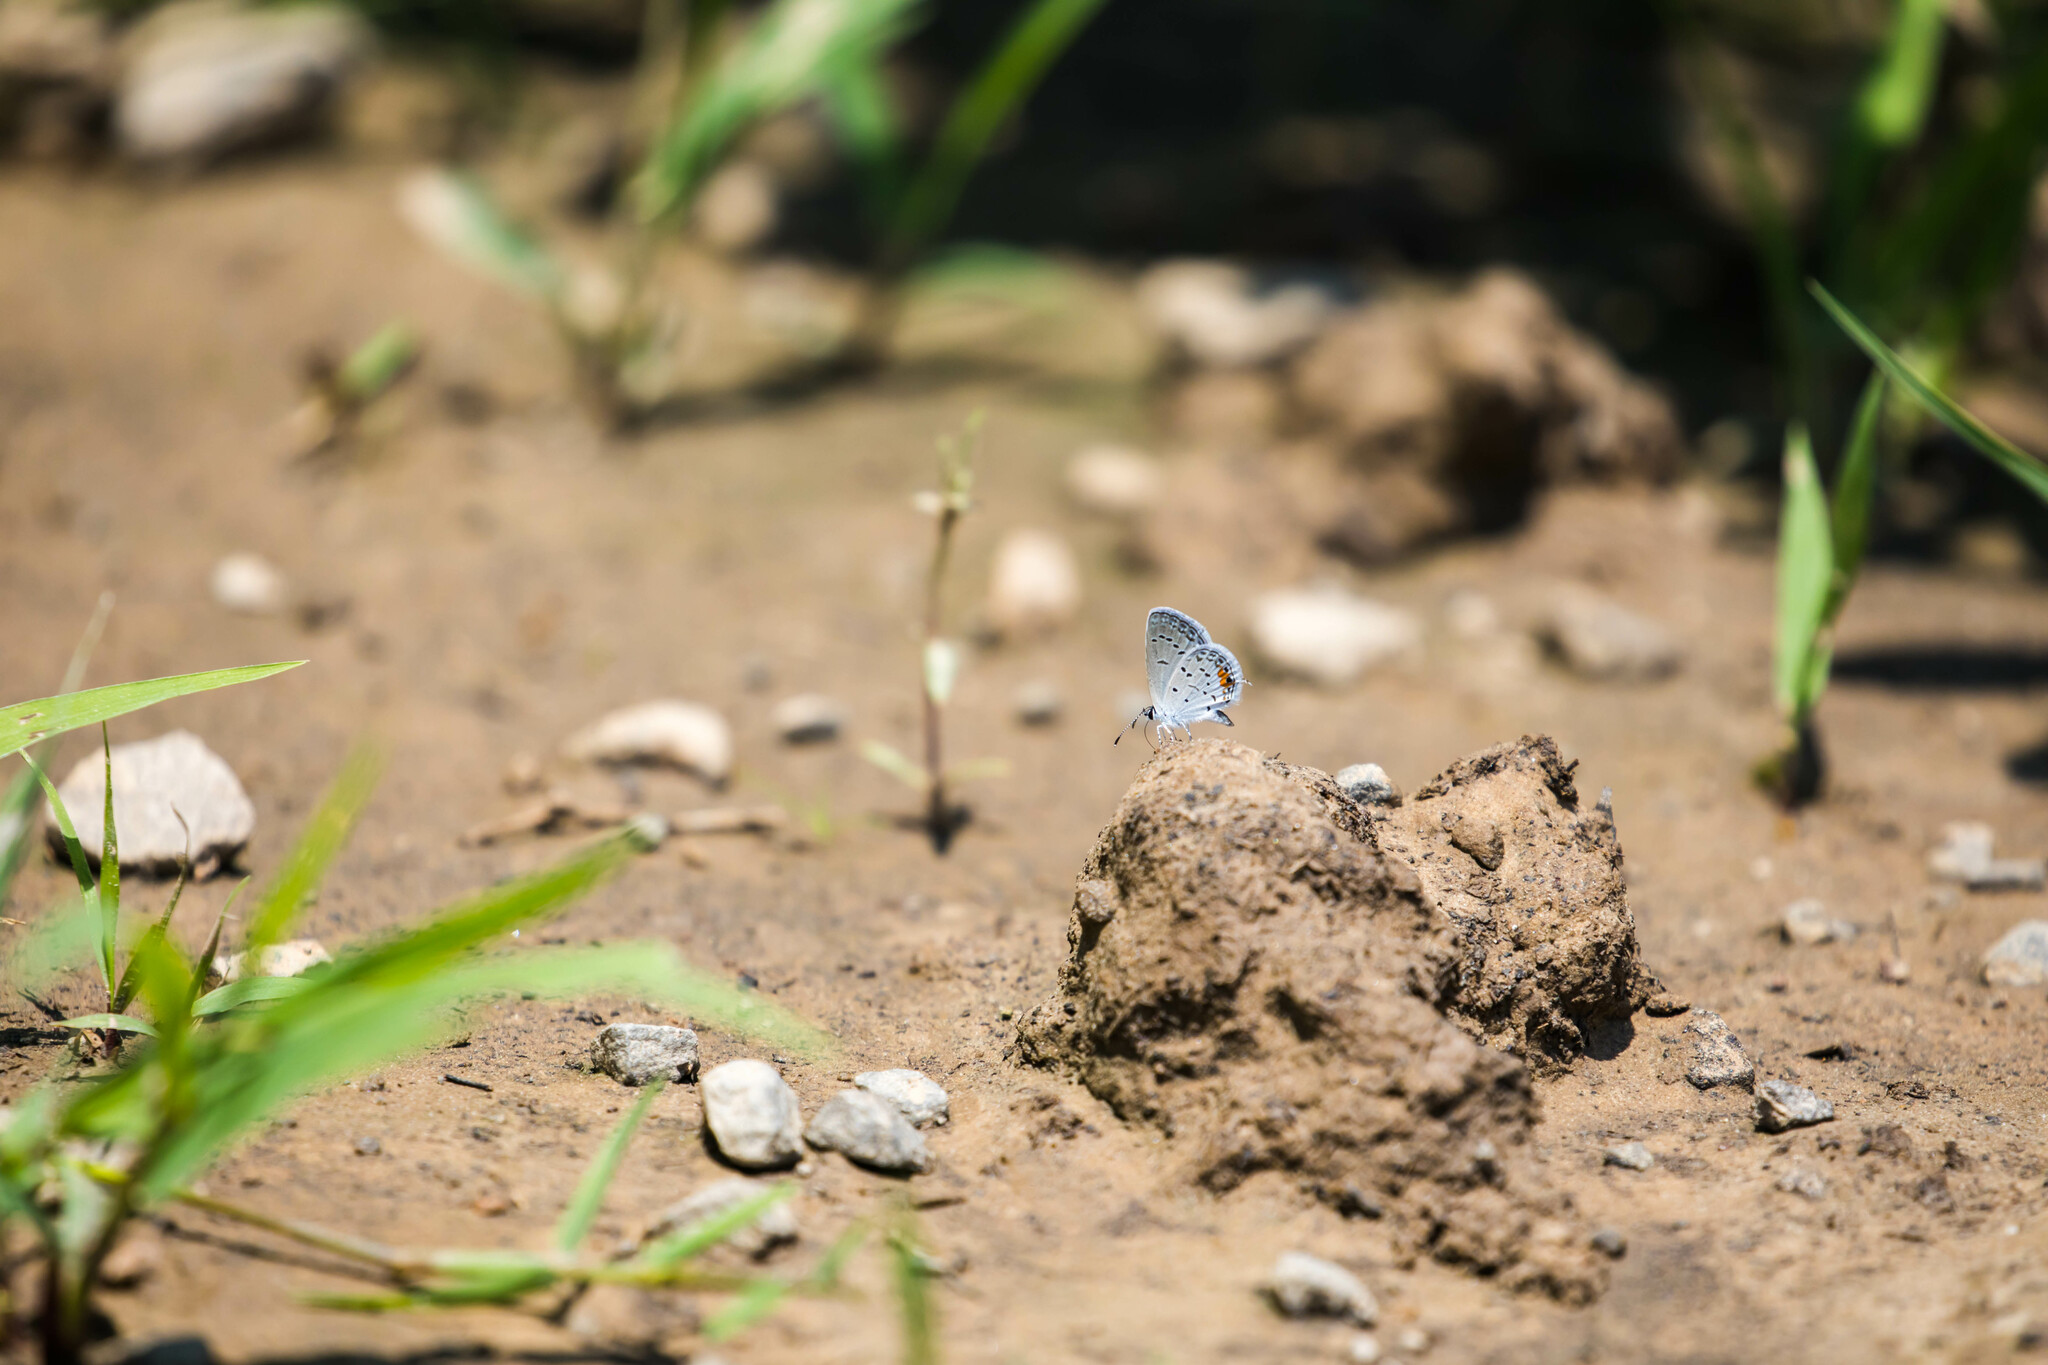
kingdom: Animalia
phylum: Arthropoda
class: Insecta
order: Lepidoptera
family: Lycaenidae
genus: Elkalyce
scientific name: Elkalyce comyntas
